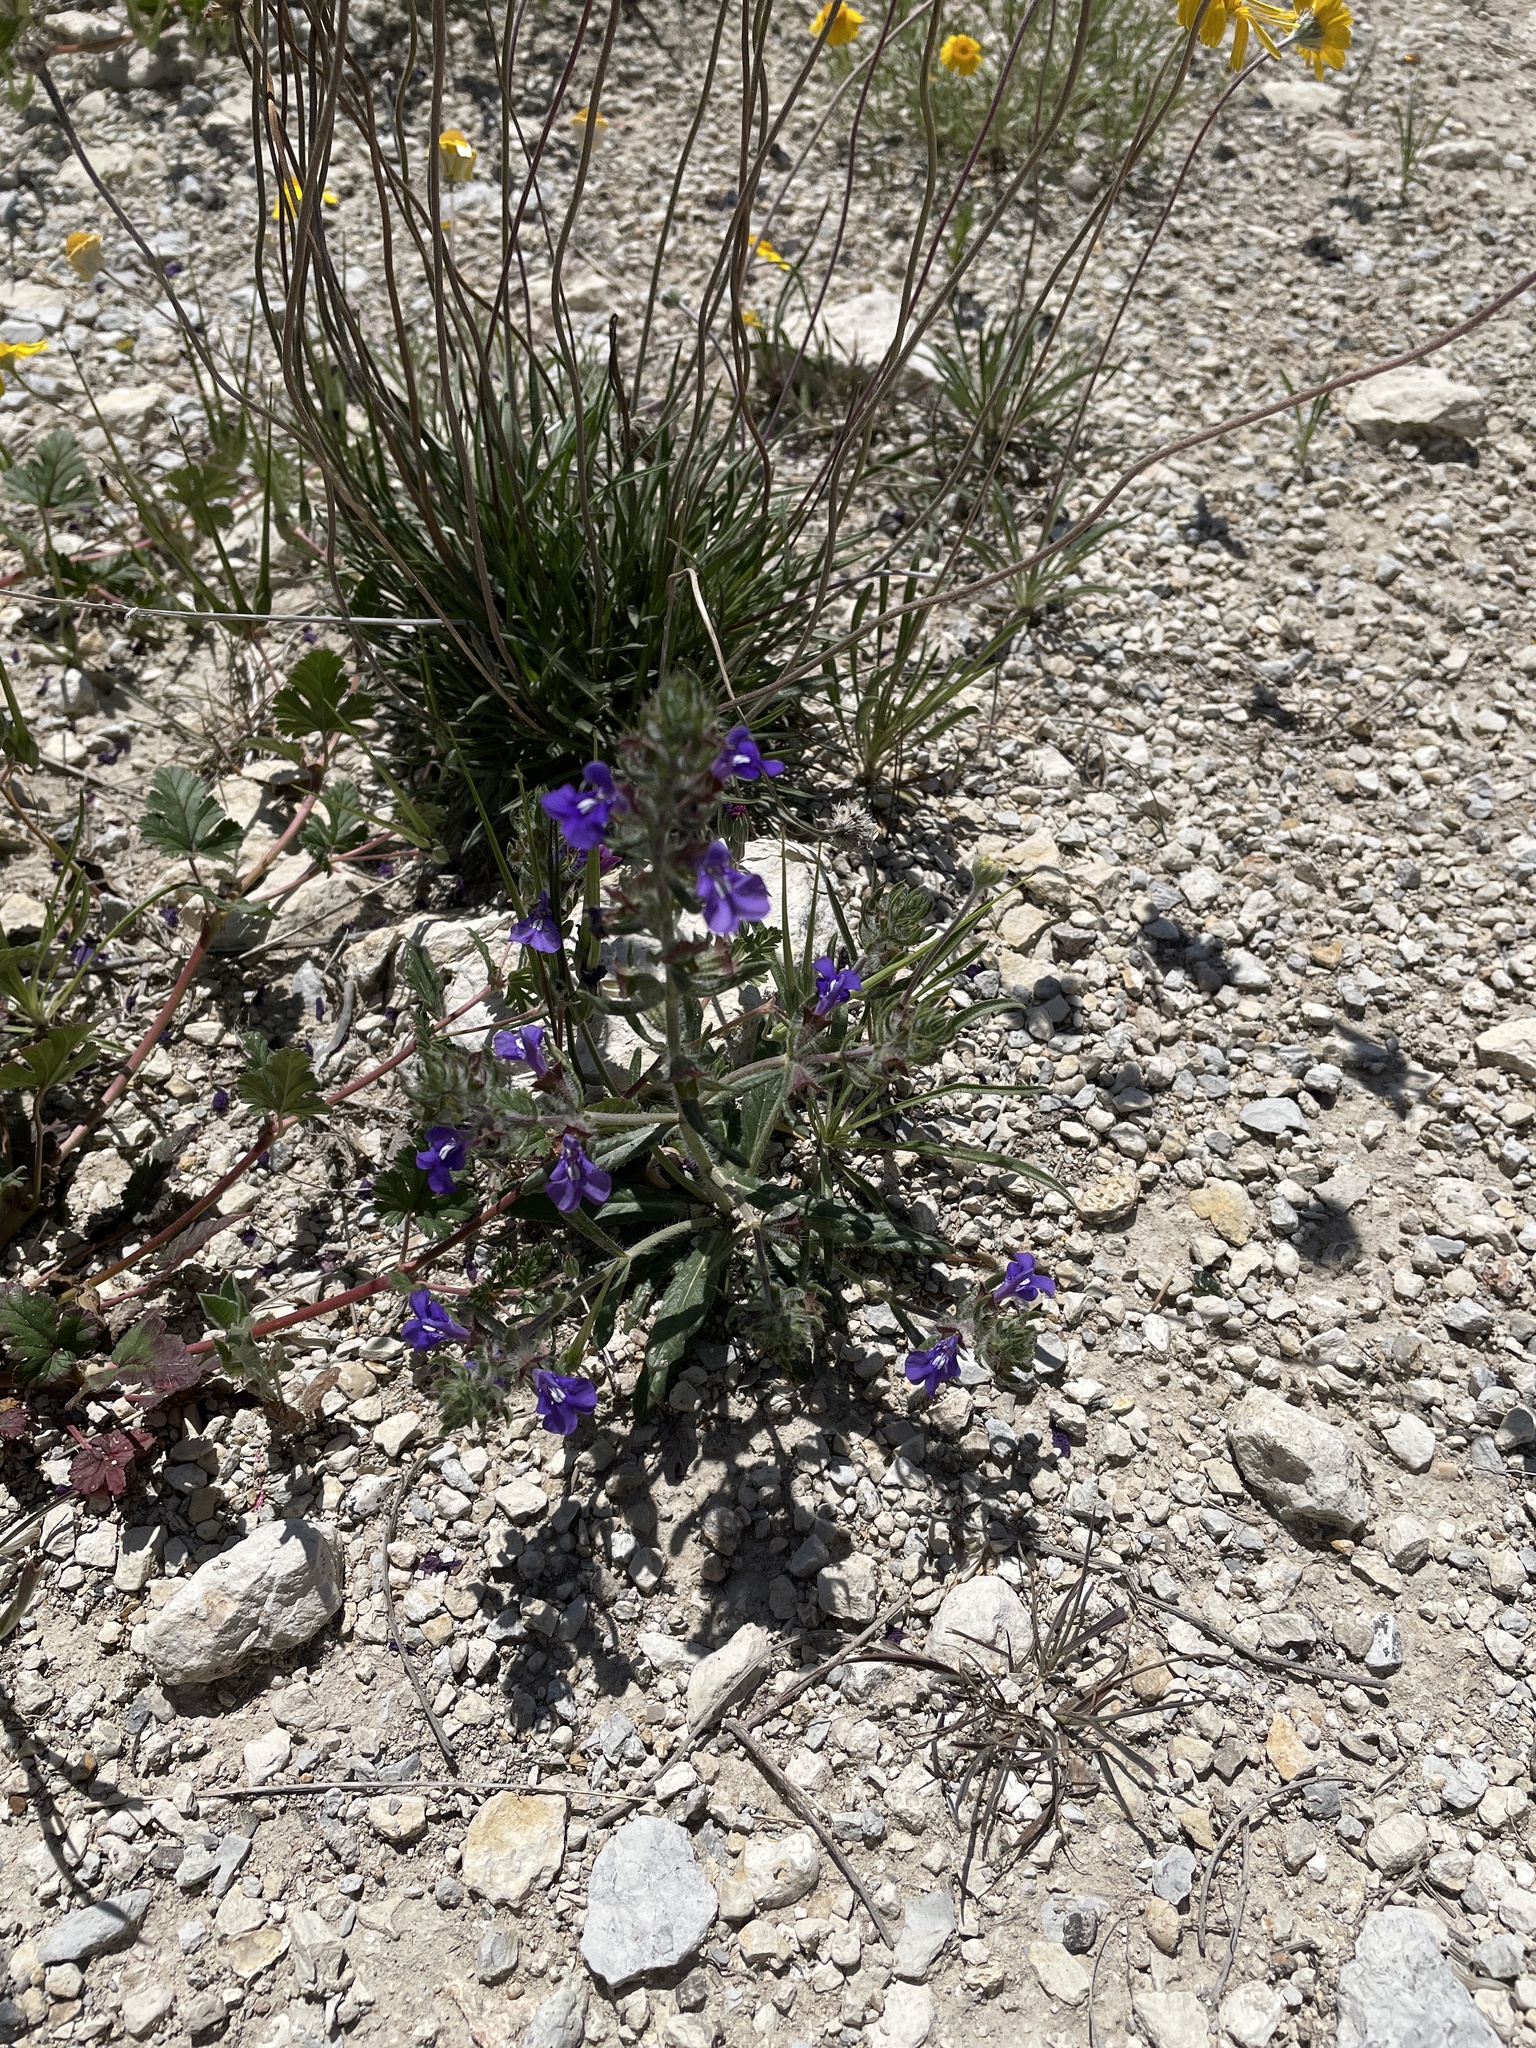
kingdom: Plantae
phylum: Tracheophyta
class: Magnoliopsida
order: Lamiales
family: Lamiaceae
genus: Salvia
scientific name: Salvia texana
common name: Texas sage
